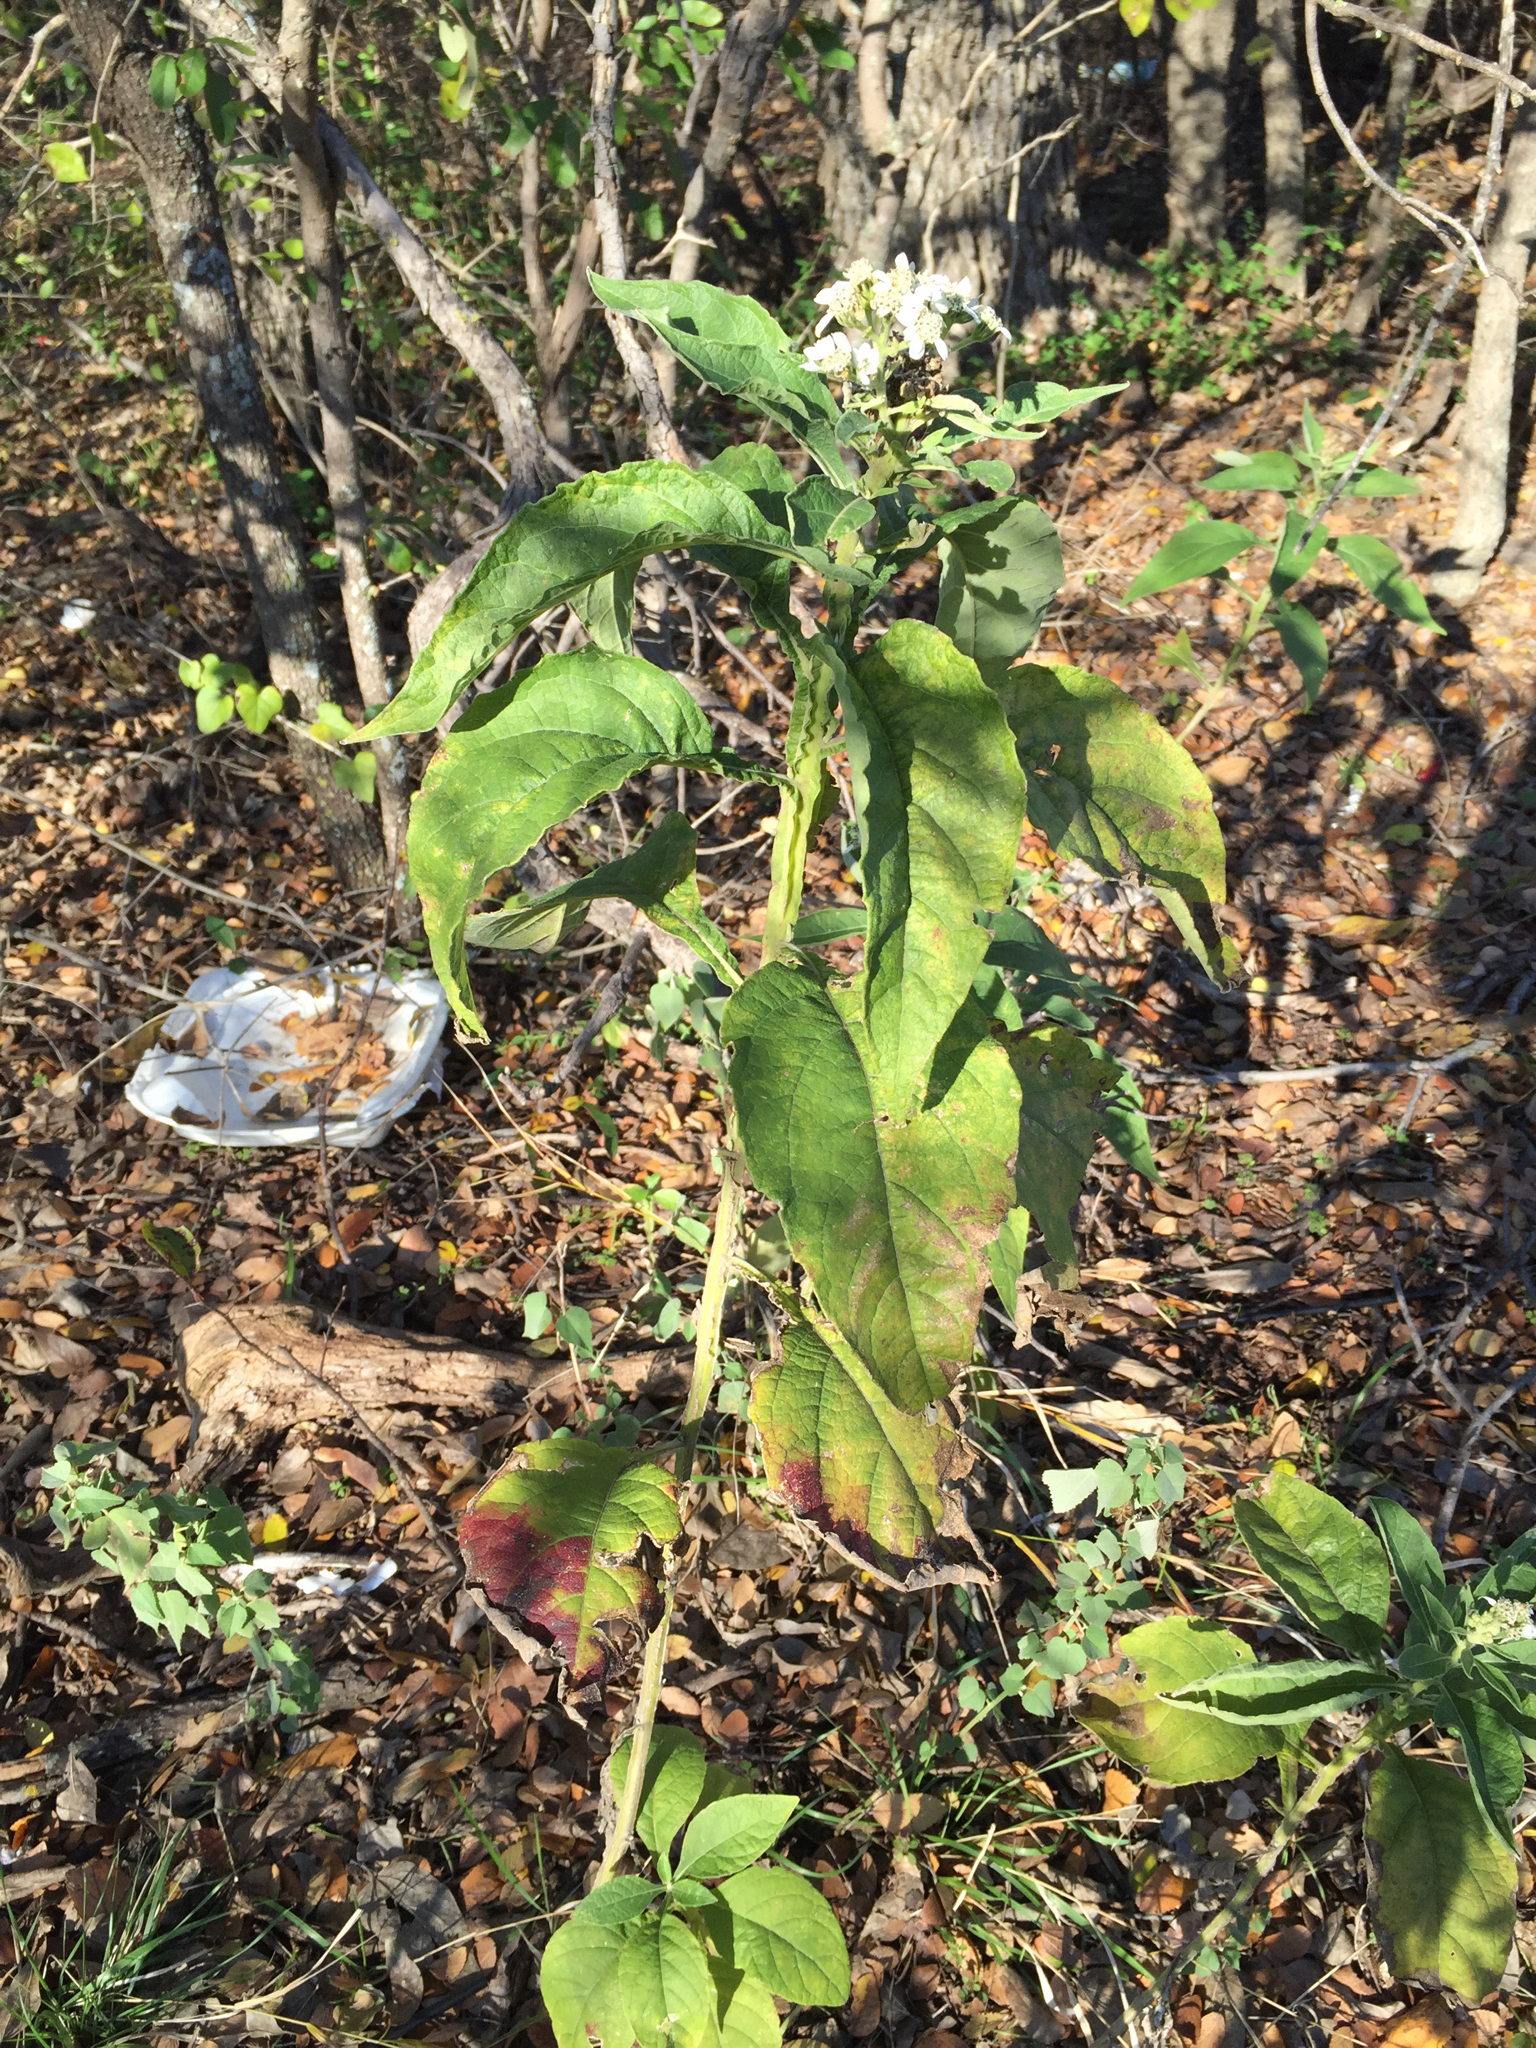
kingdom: Plantae
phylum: Tracheophyta
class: Magnoliopsida
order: Asterales
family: Asteraceae
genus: Verbesina
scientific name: Verbesina virginica
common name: Frostweed
